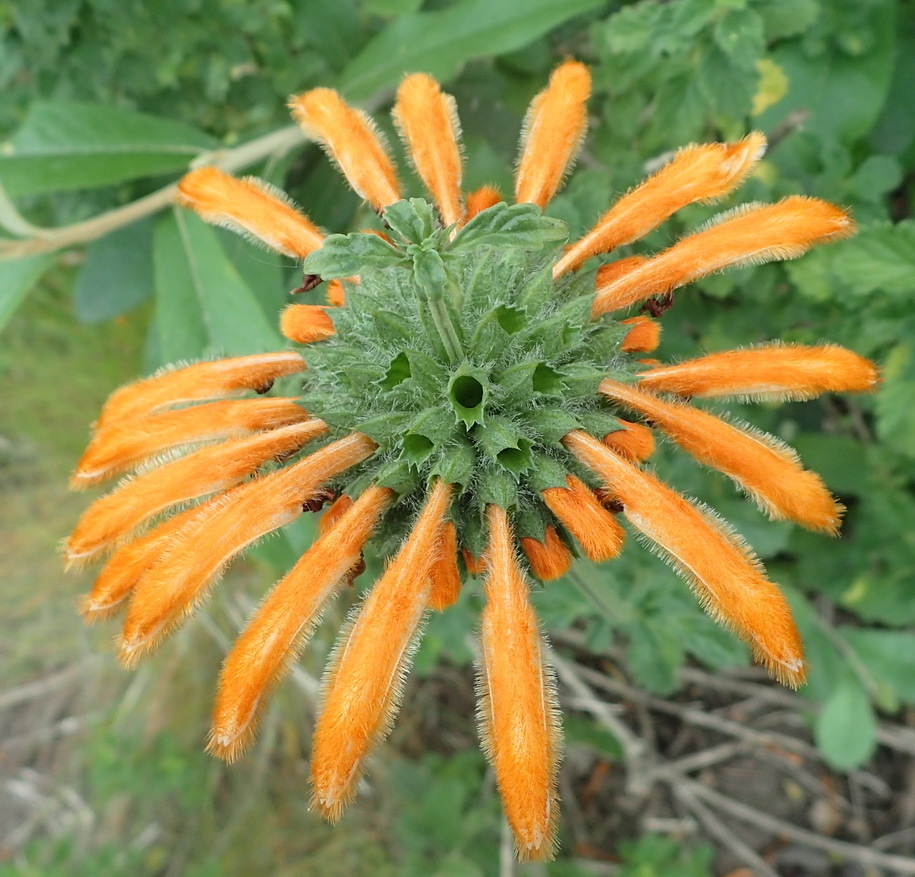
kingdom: Plantae
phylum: Tracheophyta
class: Magnoliopsida
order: Lamiales
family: Lamiaceae
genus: Leonotis
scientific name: Leonotis ocymifolia
